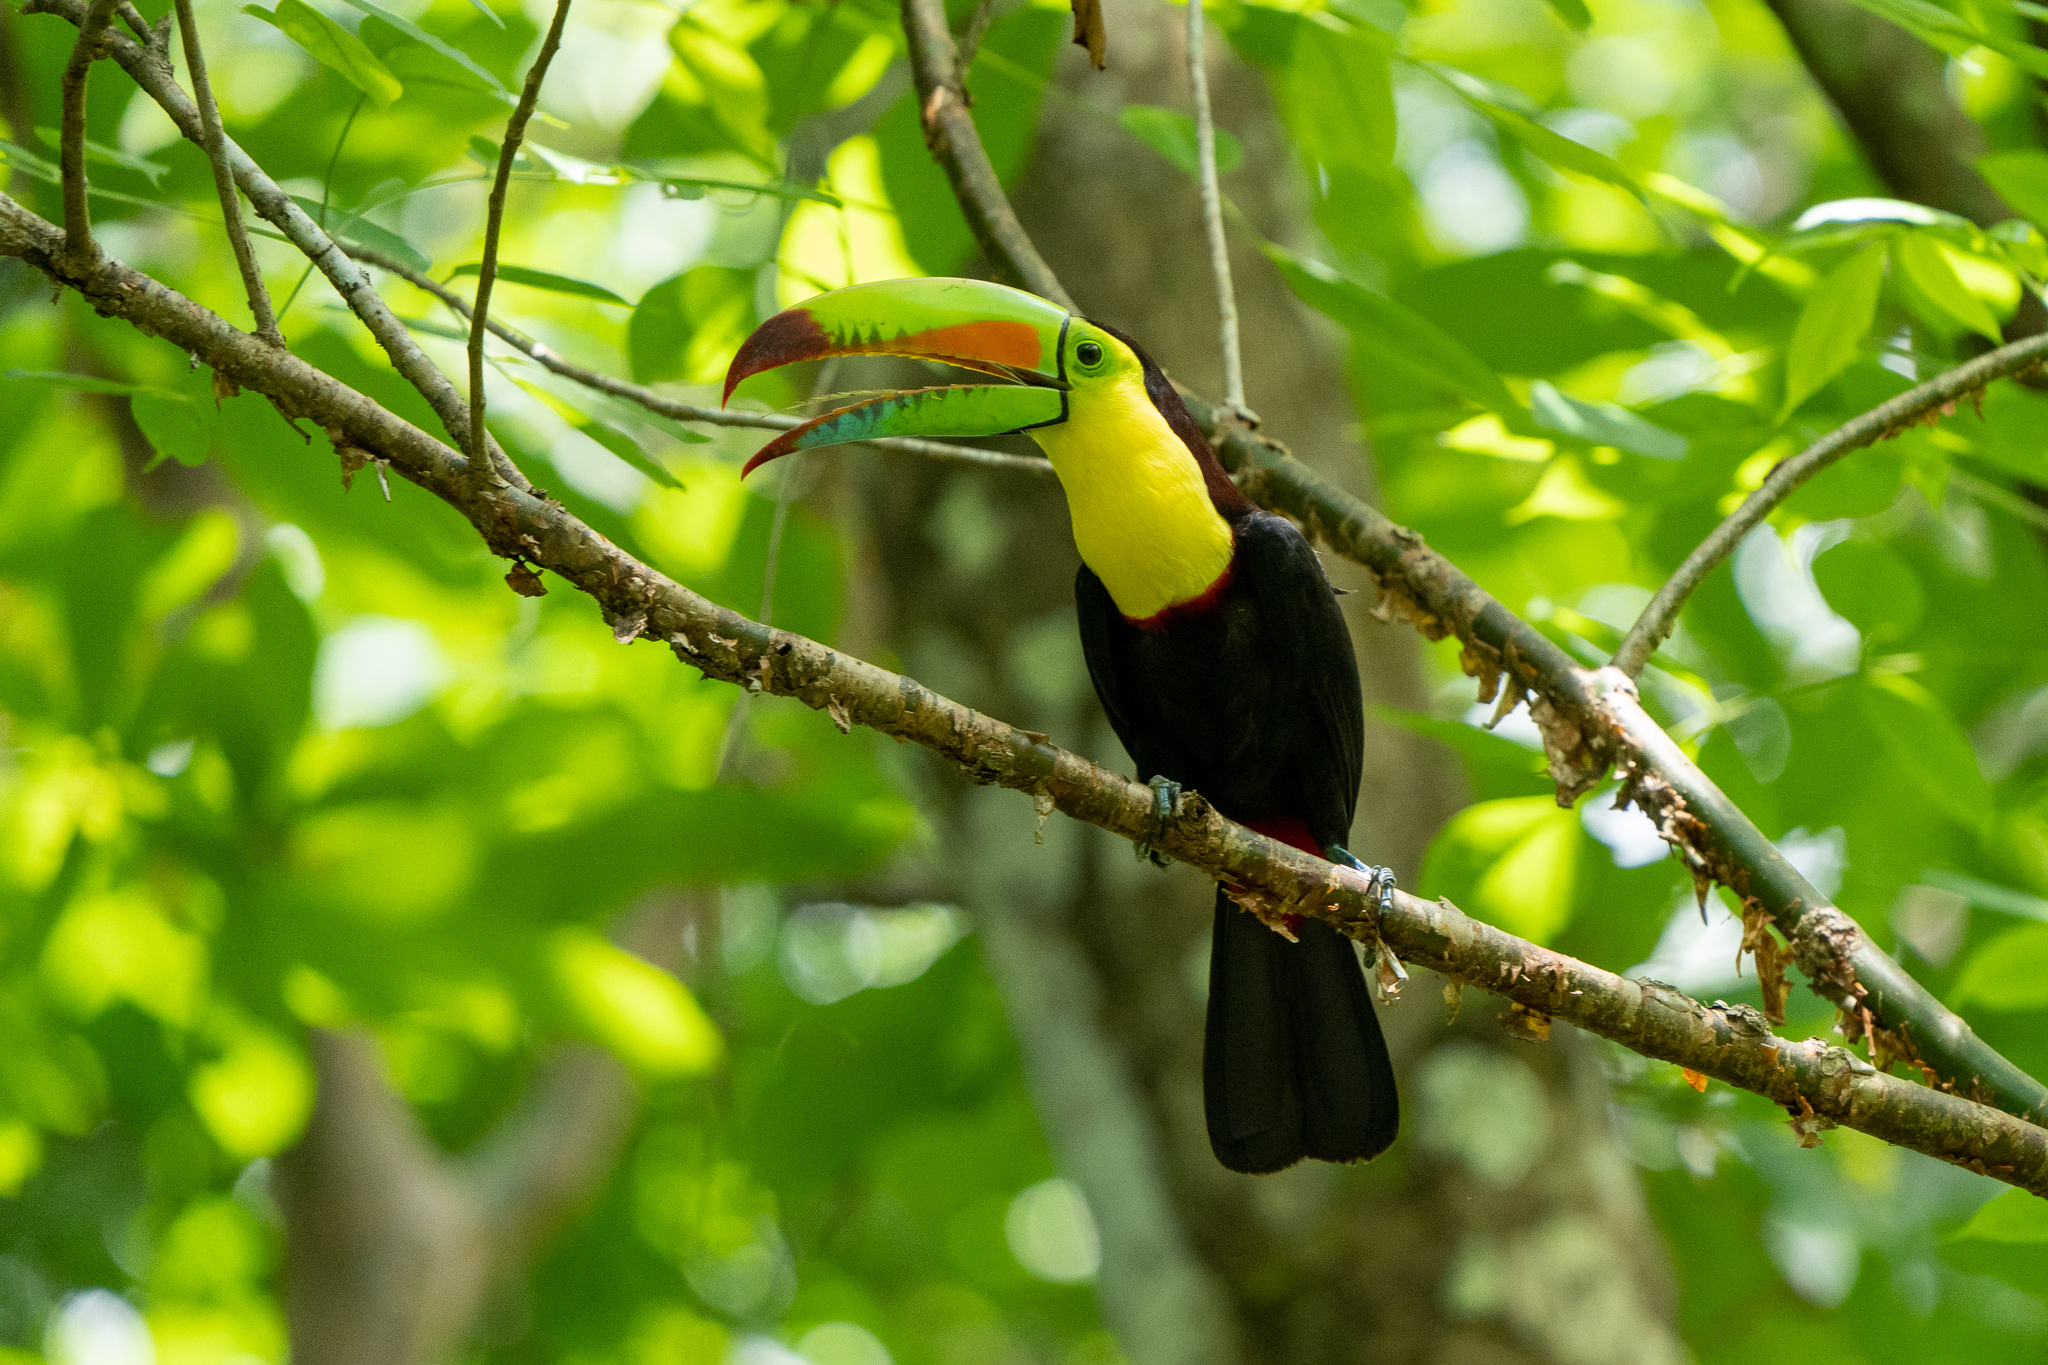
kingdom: Animalia
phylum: Chordata
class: Aves
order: Piciformes
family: Ramphastidae
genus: Ramphastos
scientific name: Ramphastos sulfuratus
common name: Keel-billed toucan
